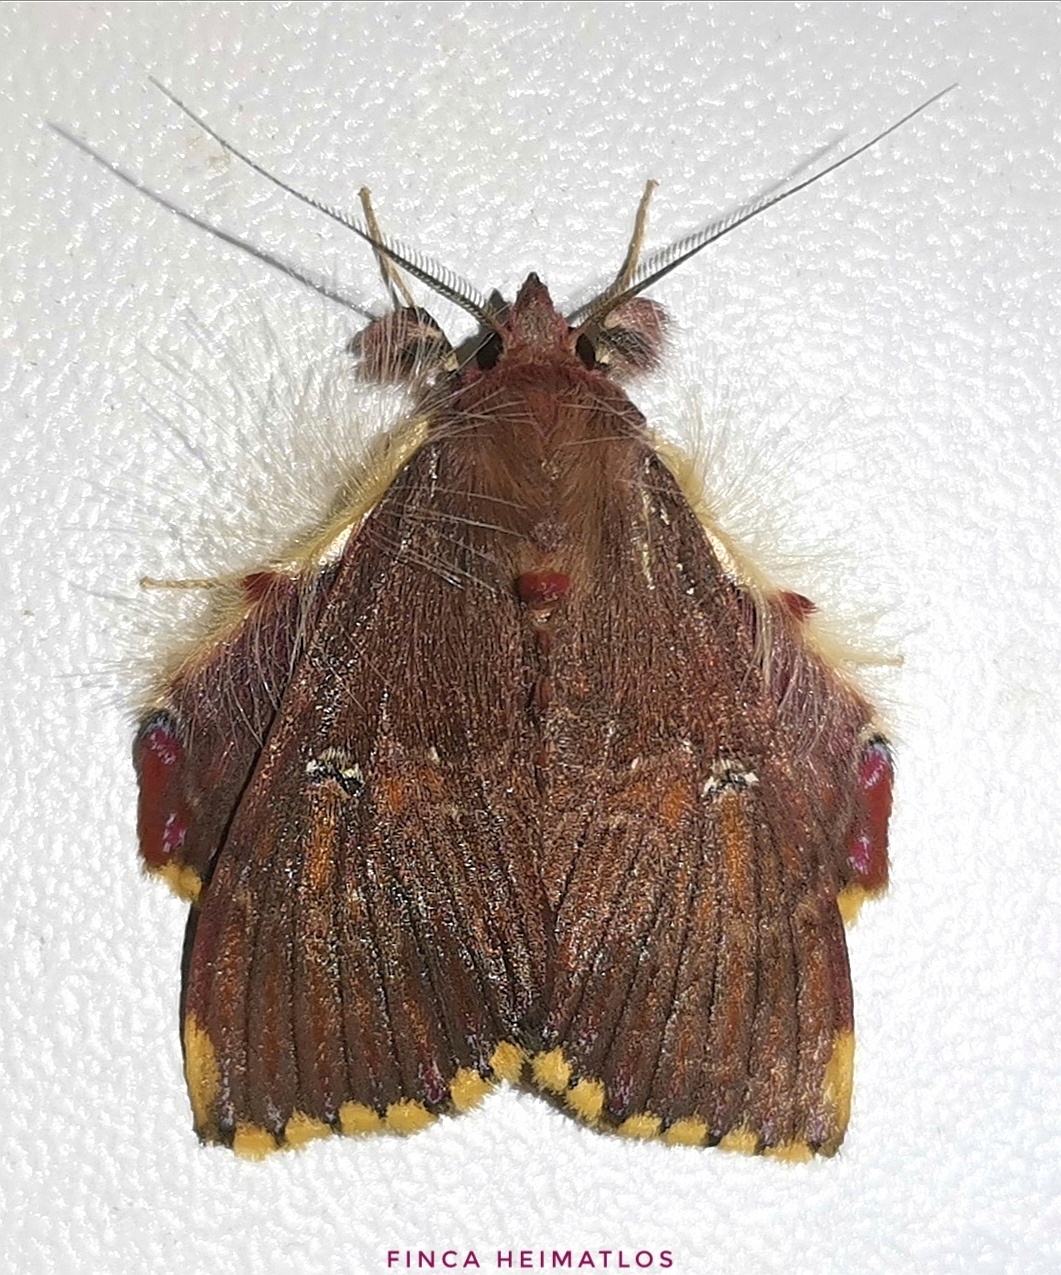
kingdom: Animalia
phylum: Arthropoda
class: Insecta
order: Lepidoptera
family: Erebidae
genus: Sosxetra
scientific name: Sosxetra grata
